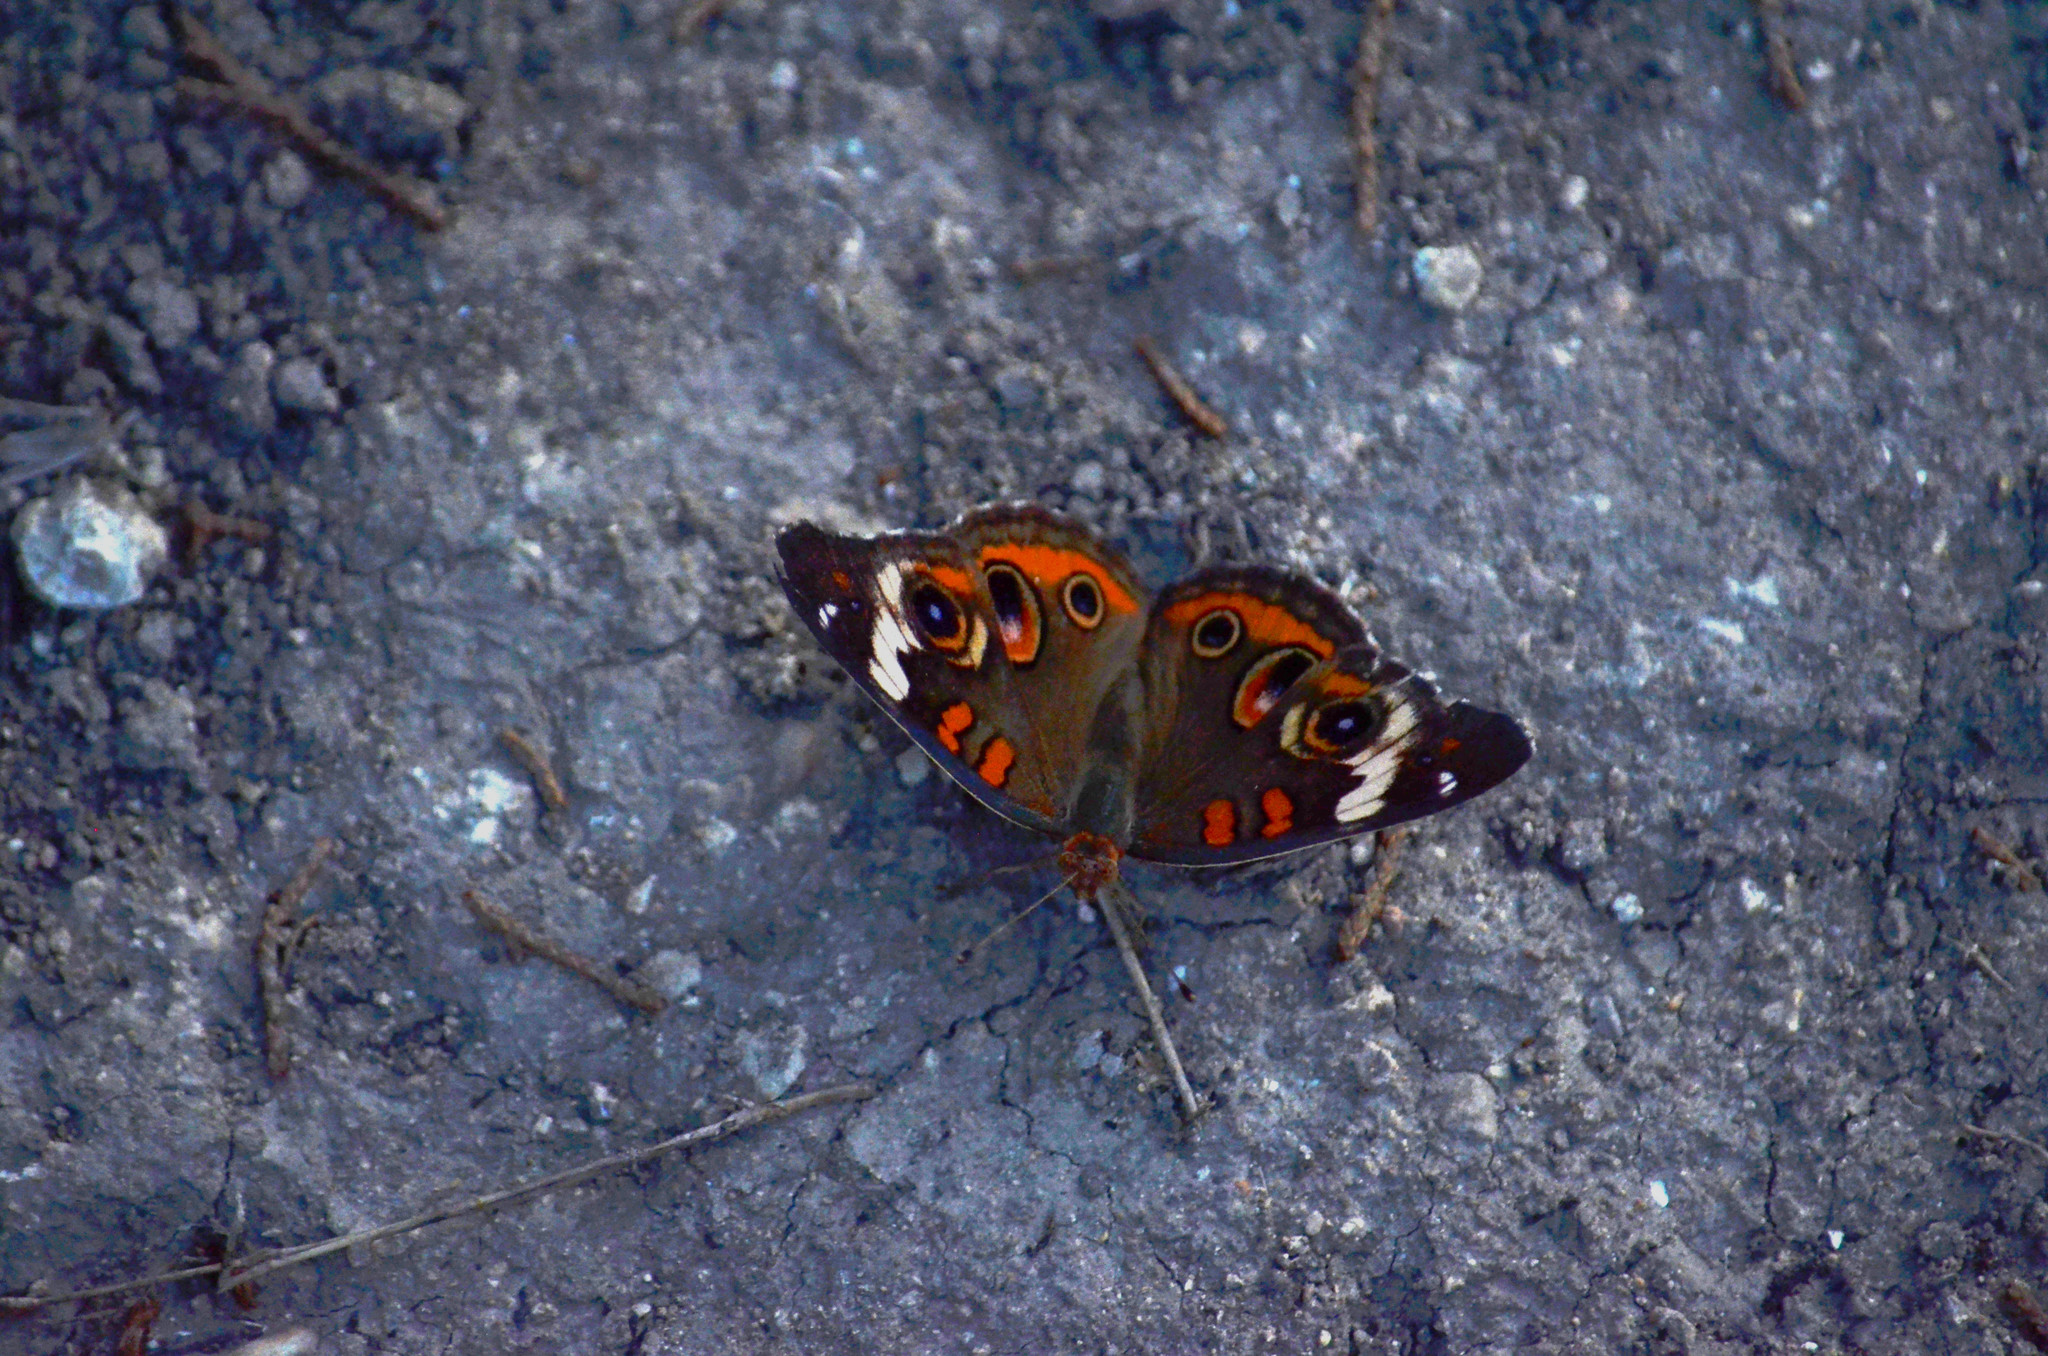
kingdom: Animalia
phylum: Arthropoda
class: Insecta
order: Lepidoptera
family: Nymphalidae
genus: Junonia
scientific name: Junonia coenia
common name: Common buckeye
